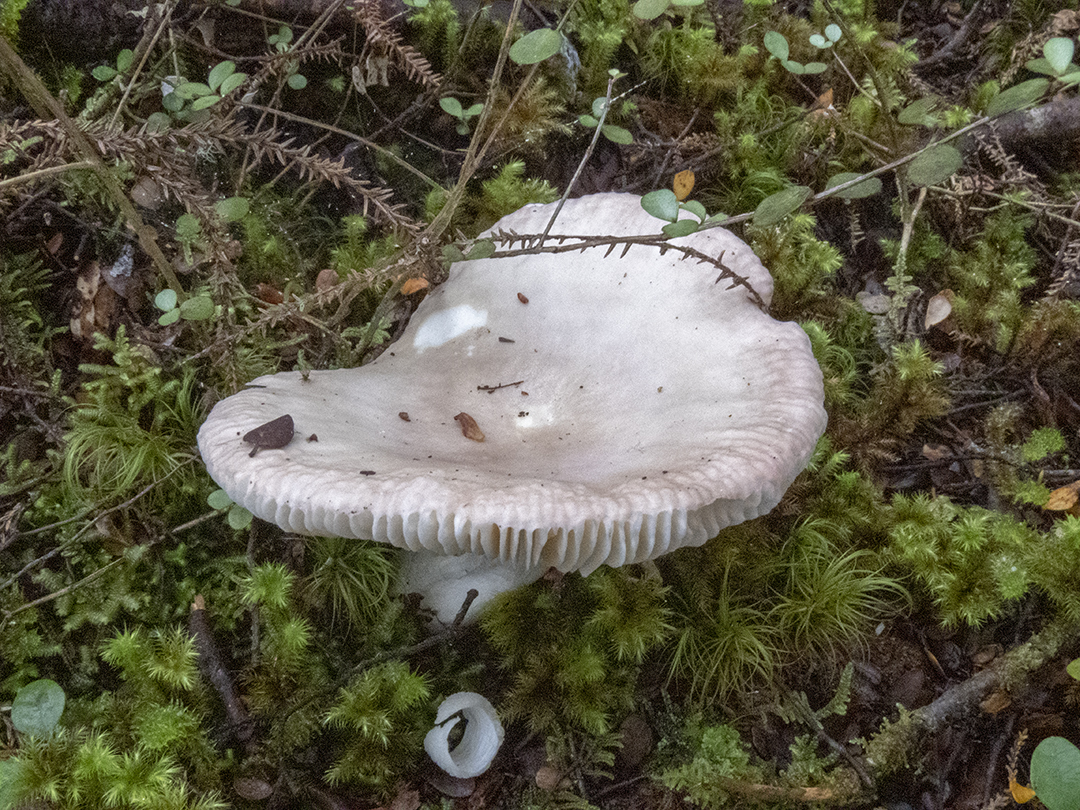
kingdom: Fungi
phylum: Basidiomycota
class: Agaricomycetes
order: Russulales
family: Russulaceae
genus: Russula
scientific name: Russula purpureotincta
